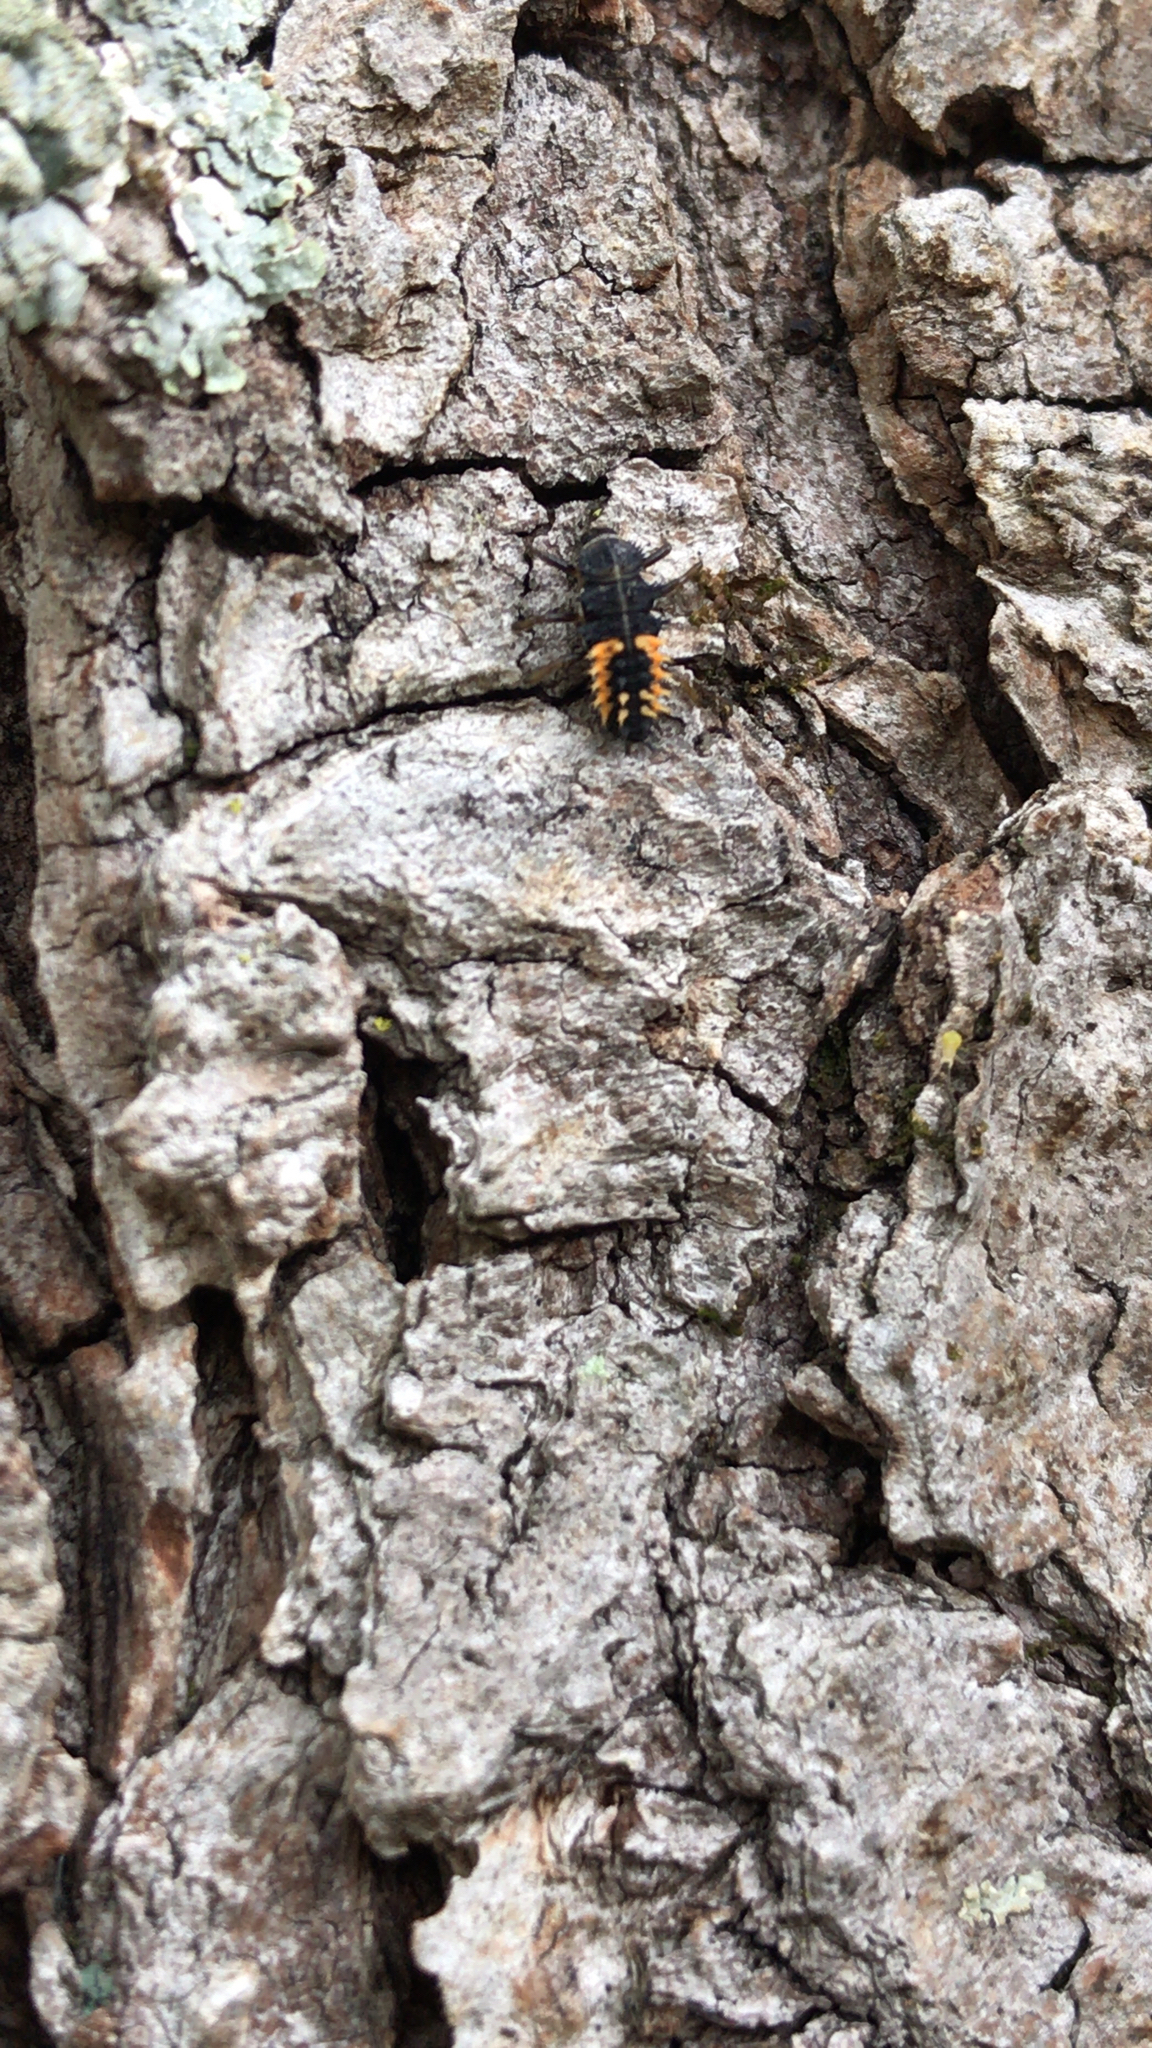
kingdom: Animalia
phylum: Arthropoda
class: Insecta
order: Coleoptera
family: Coccinellidae
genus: Harmonia
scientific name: Harmonia axyridis
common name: Harlequin ladybird
